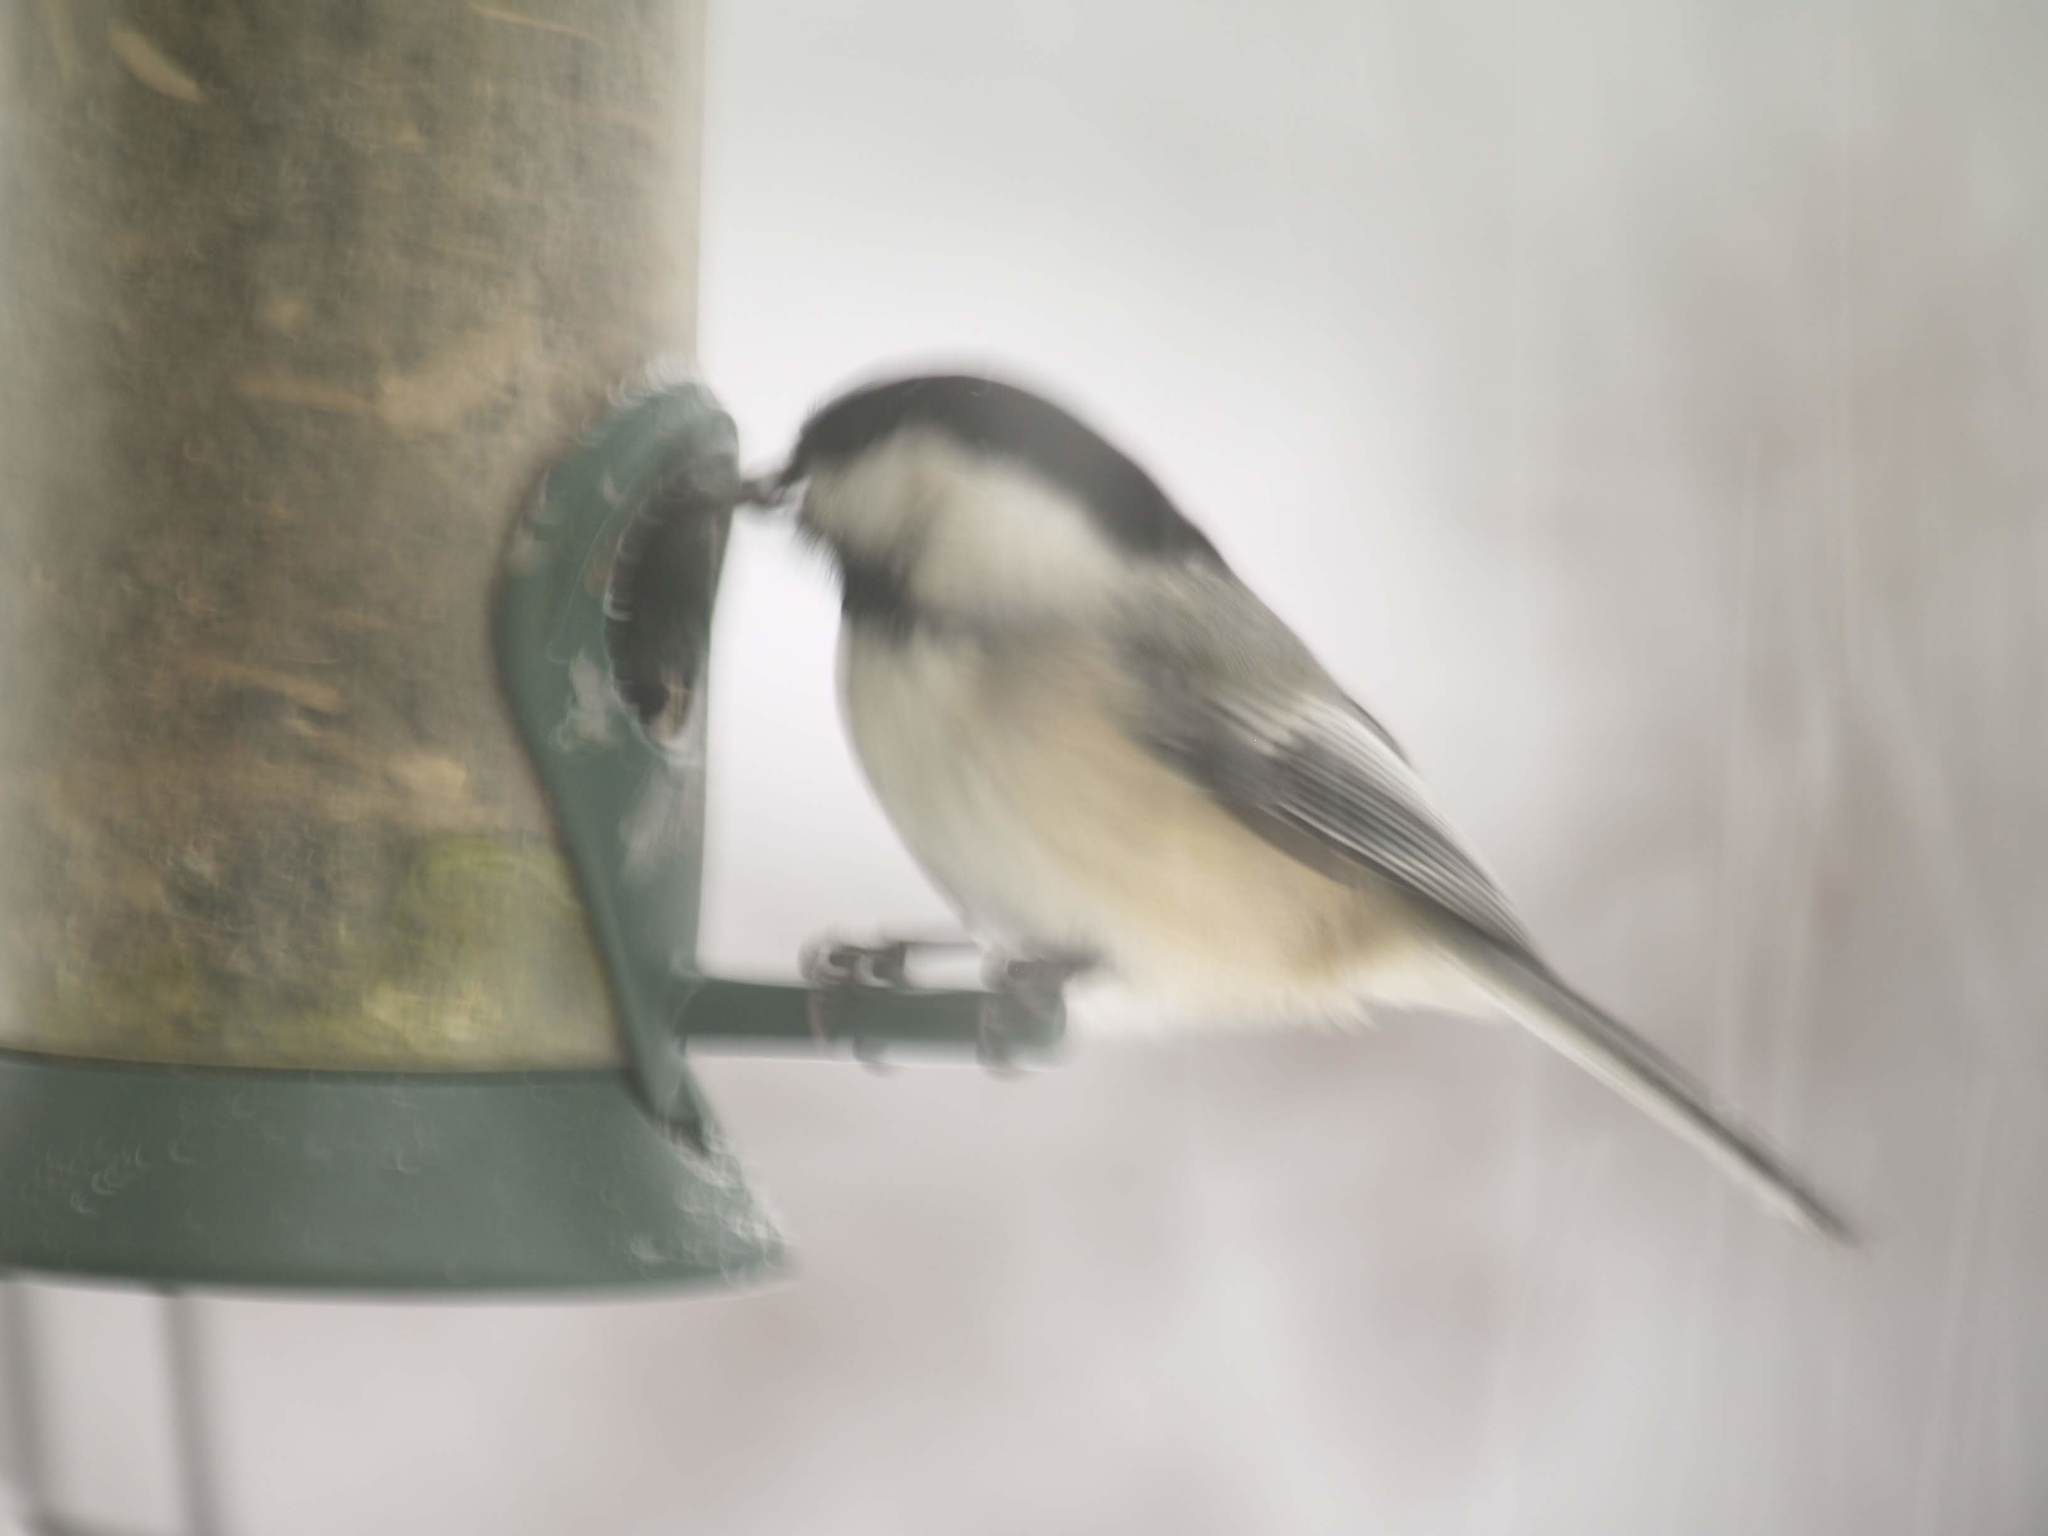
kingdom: Animalia
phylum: Chordata
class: Aves
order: Passeriformes
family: Paridae
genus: Poecile
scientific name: Poecile atricapillus
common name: Black-capped chickadee
